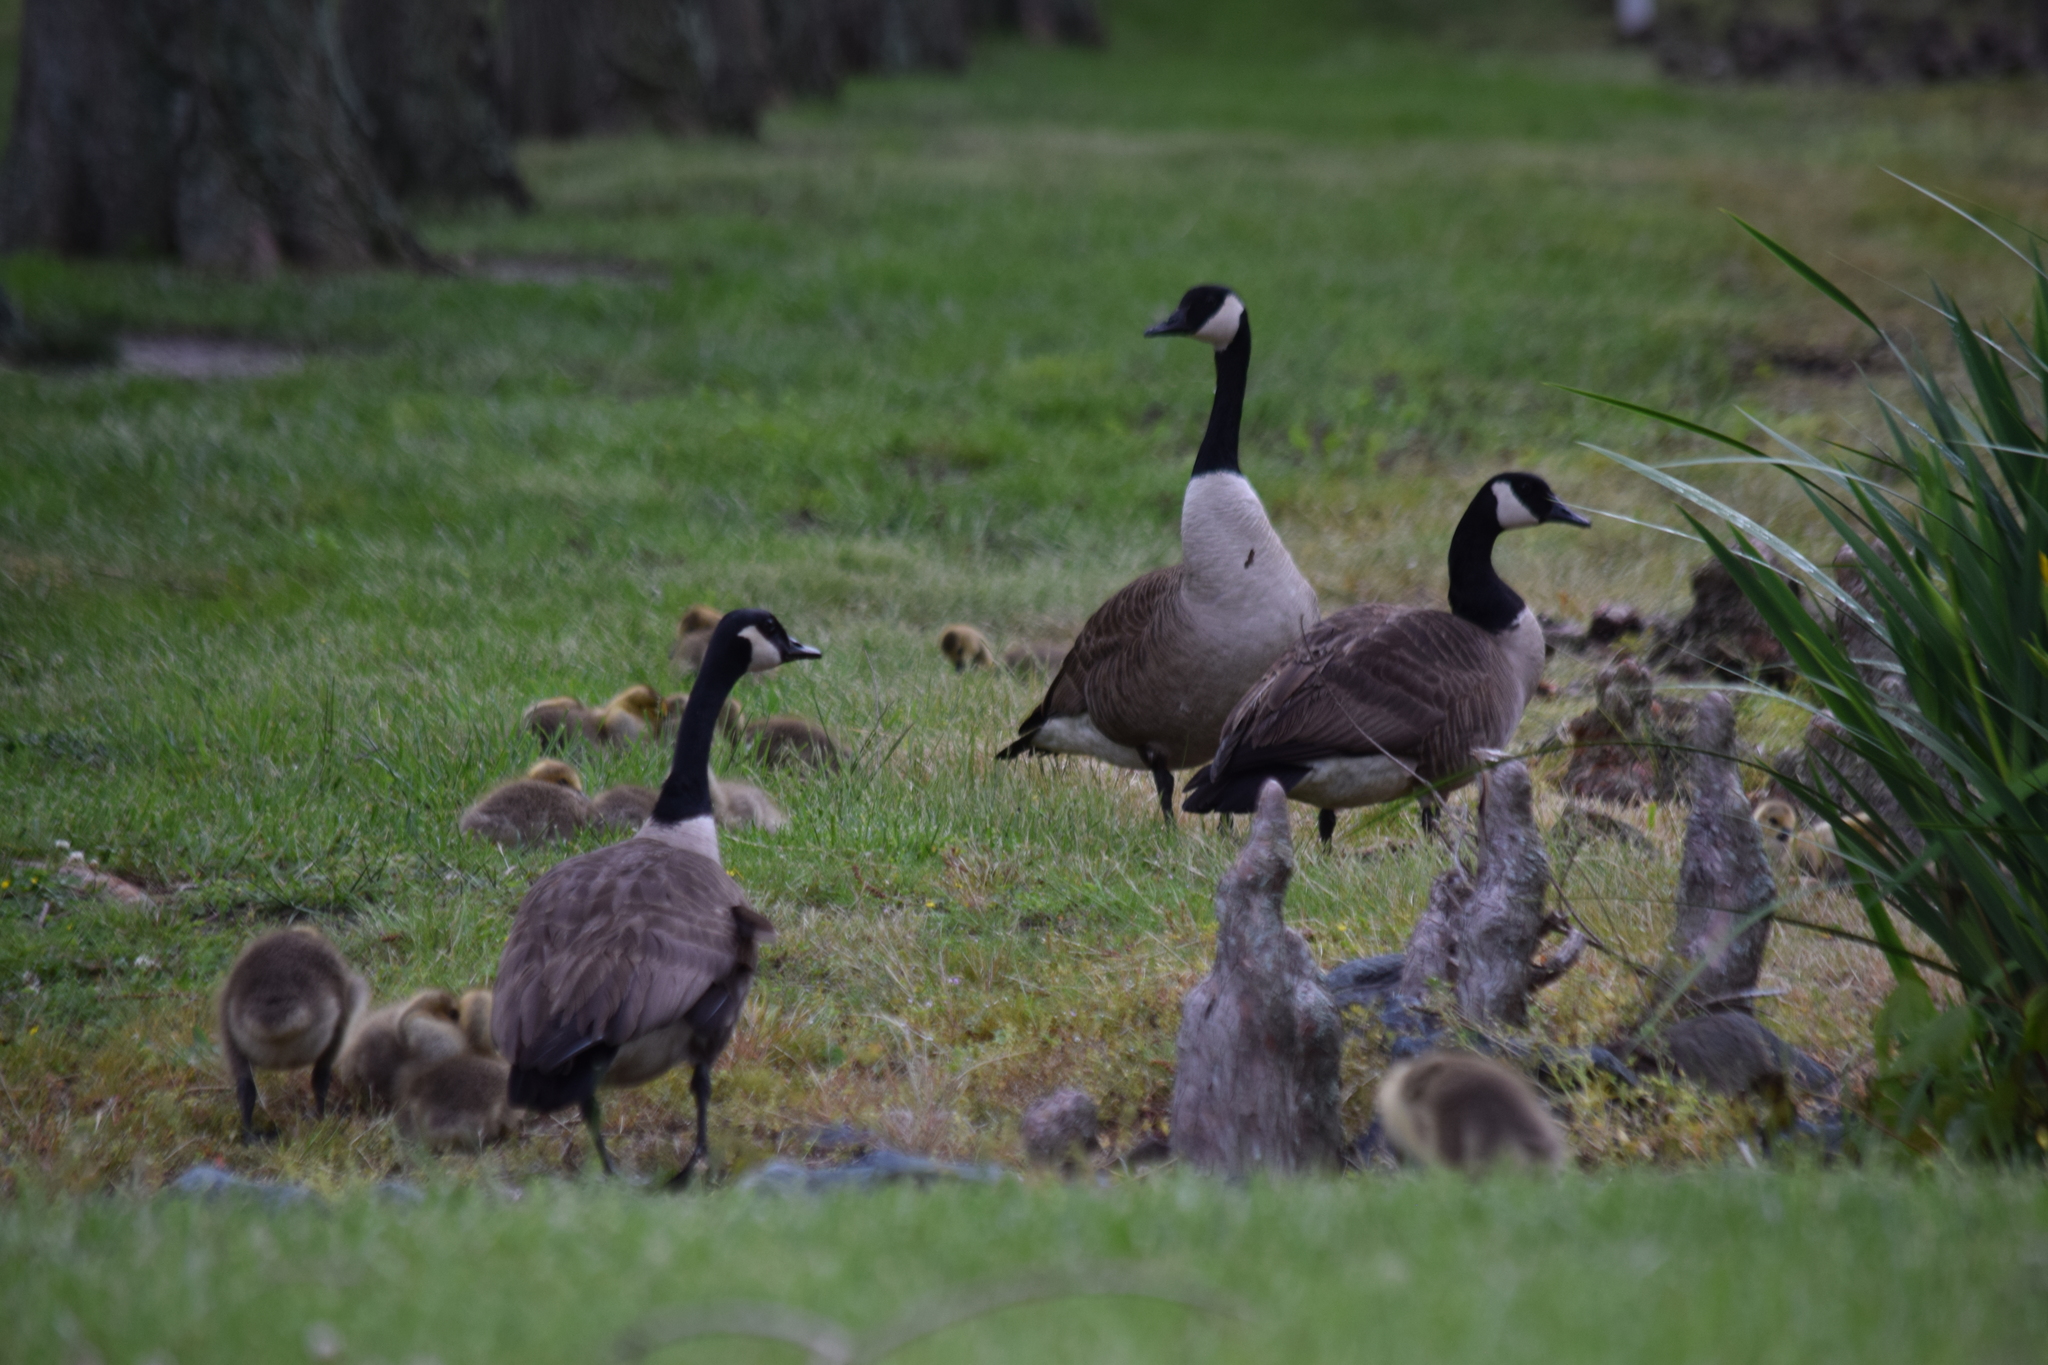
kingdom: Animalia
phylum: Chordata
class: Aves
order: Anseriformes
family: Anatidae
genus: Branta
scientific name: Branta canadensis
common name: Canada goose
